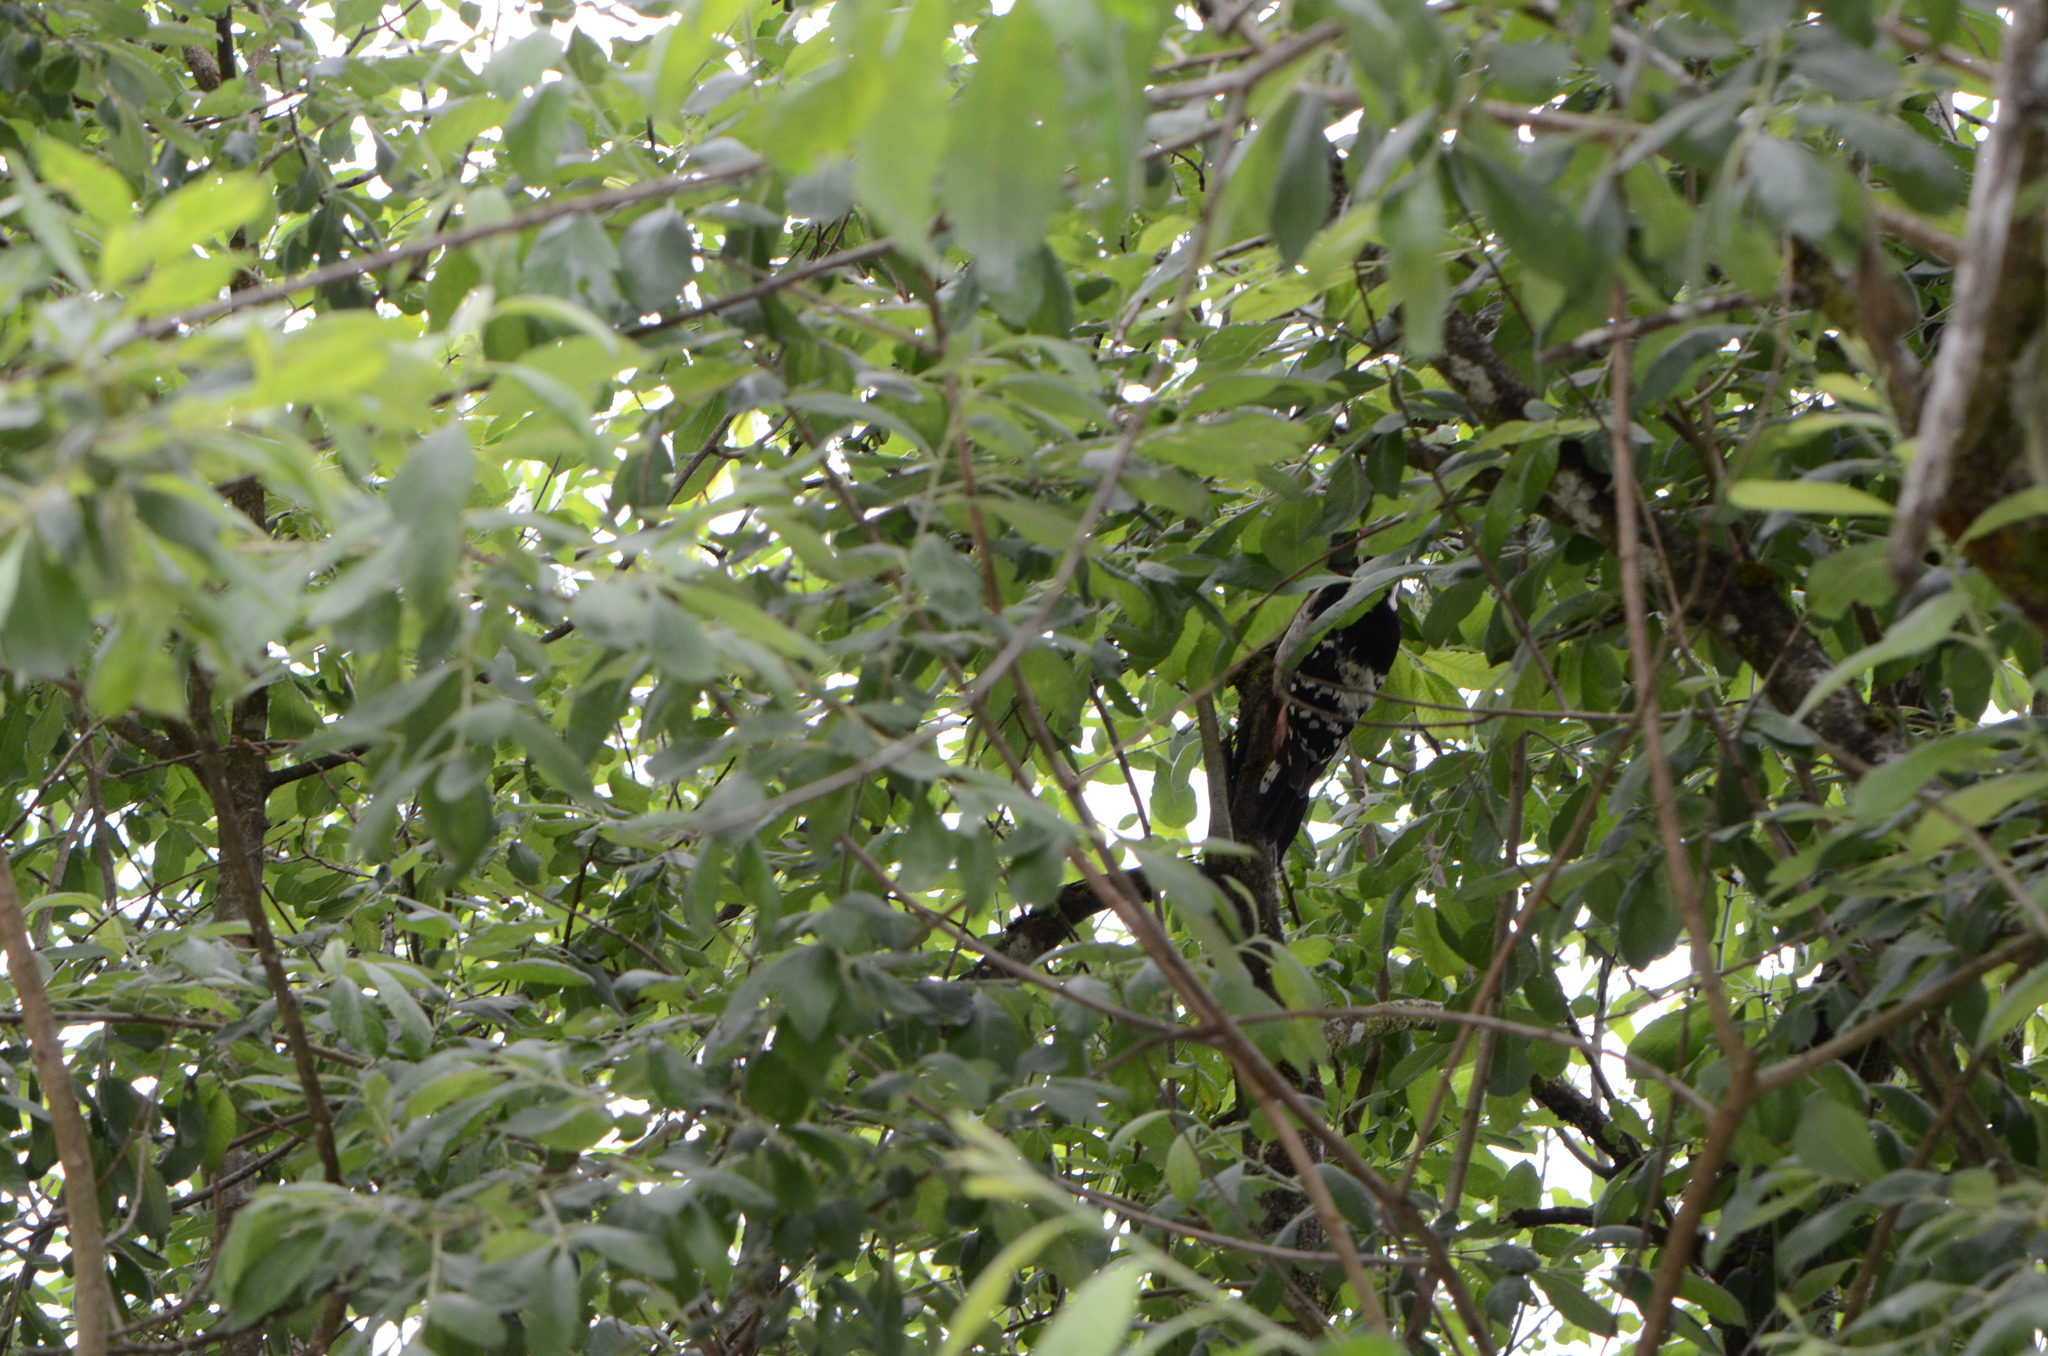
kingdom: Animalia
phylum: Chordata
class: Aves
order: Piciformes
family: Picidae
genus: Dendrocopos
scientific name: Dendrocopos leucotos
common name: White-backed woodpecker
